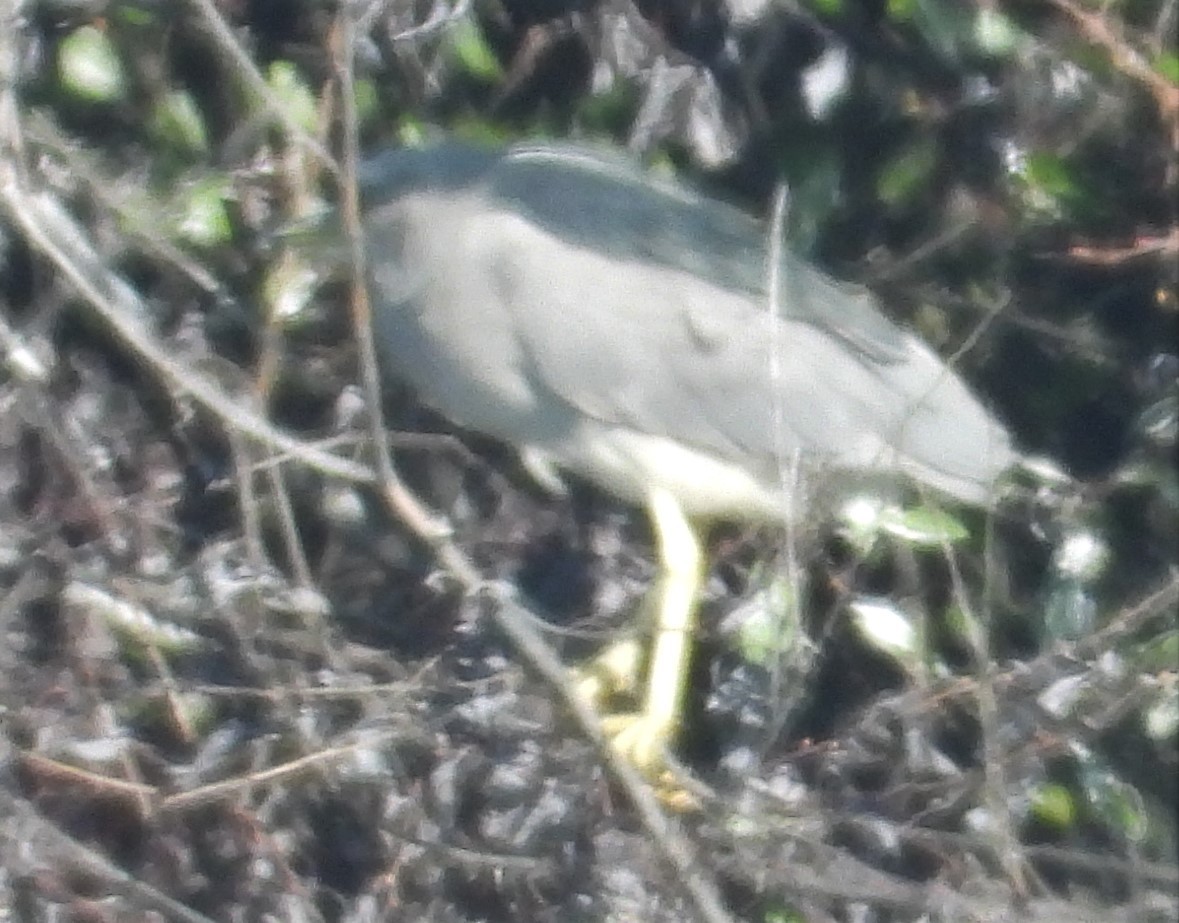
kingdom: Animalia
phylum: Chordata
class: Aves
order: Pelecaniformes
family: Ardeidae
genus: Nycticorax
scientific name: Nycticorax nycticorax
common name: Black-crowned night heron
